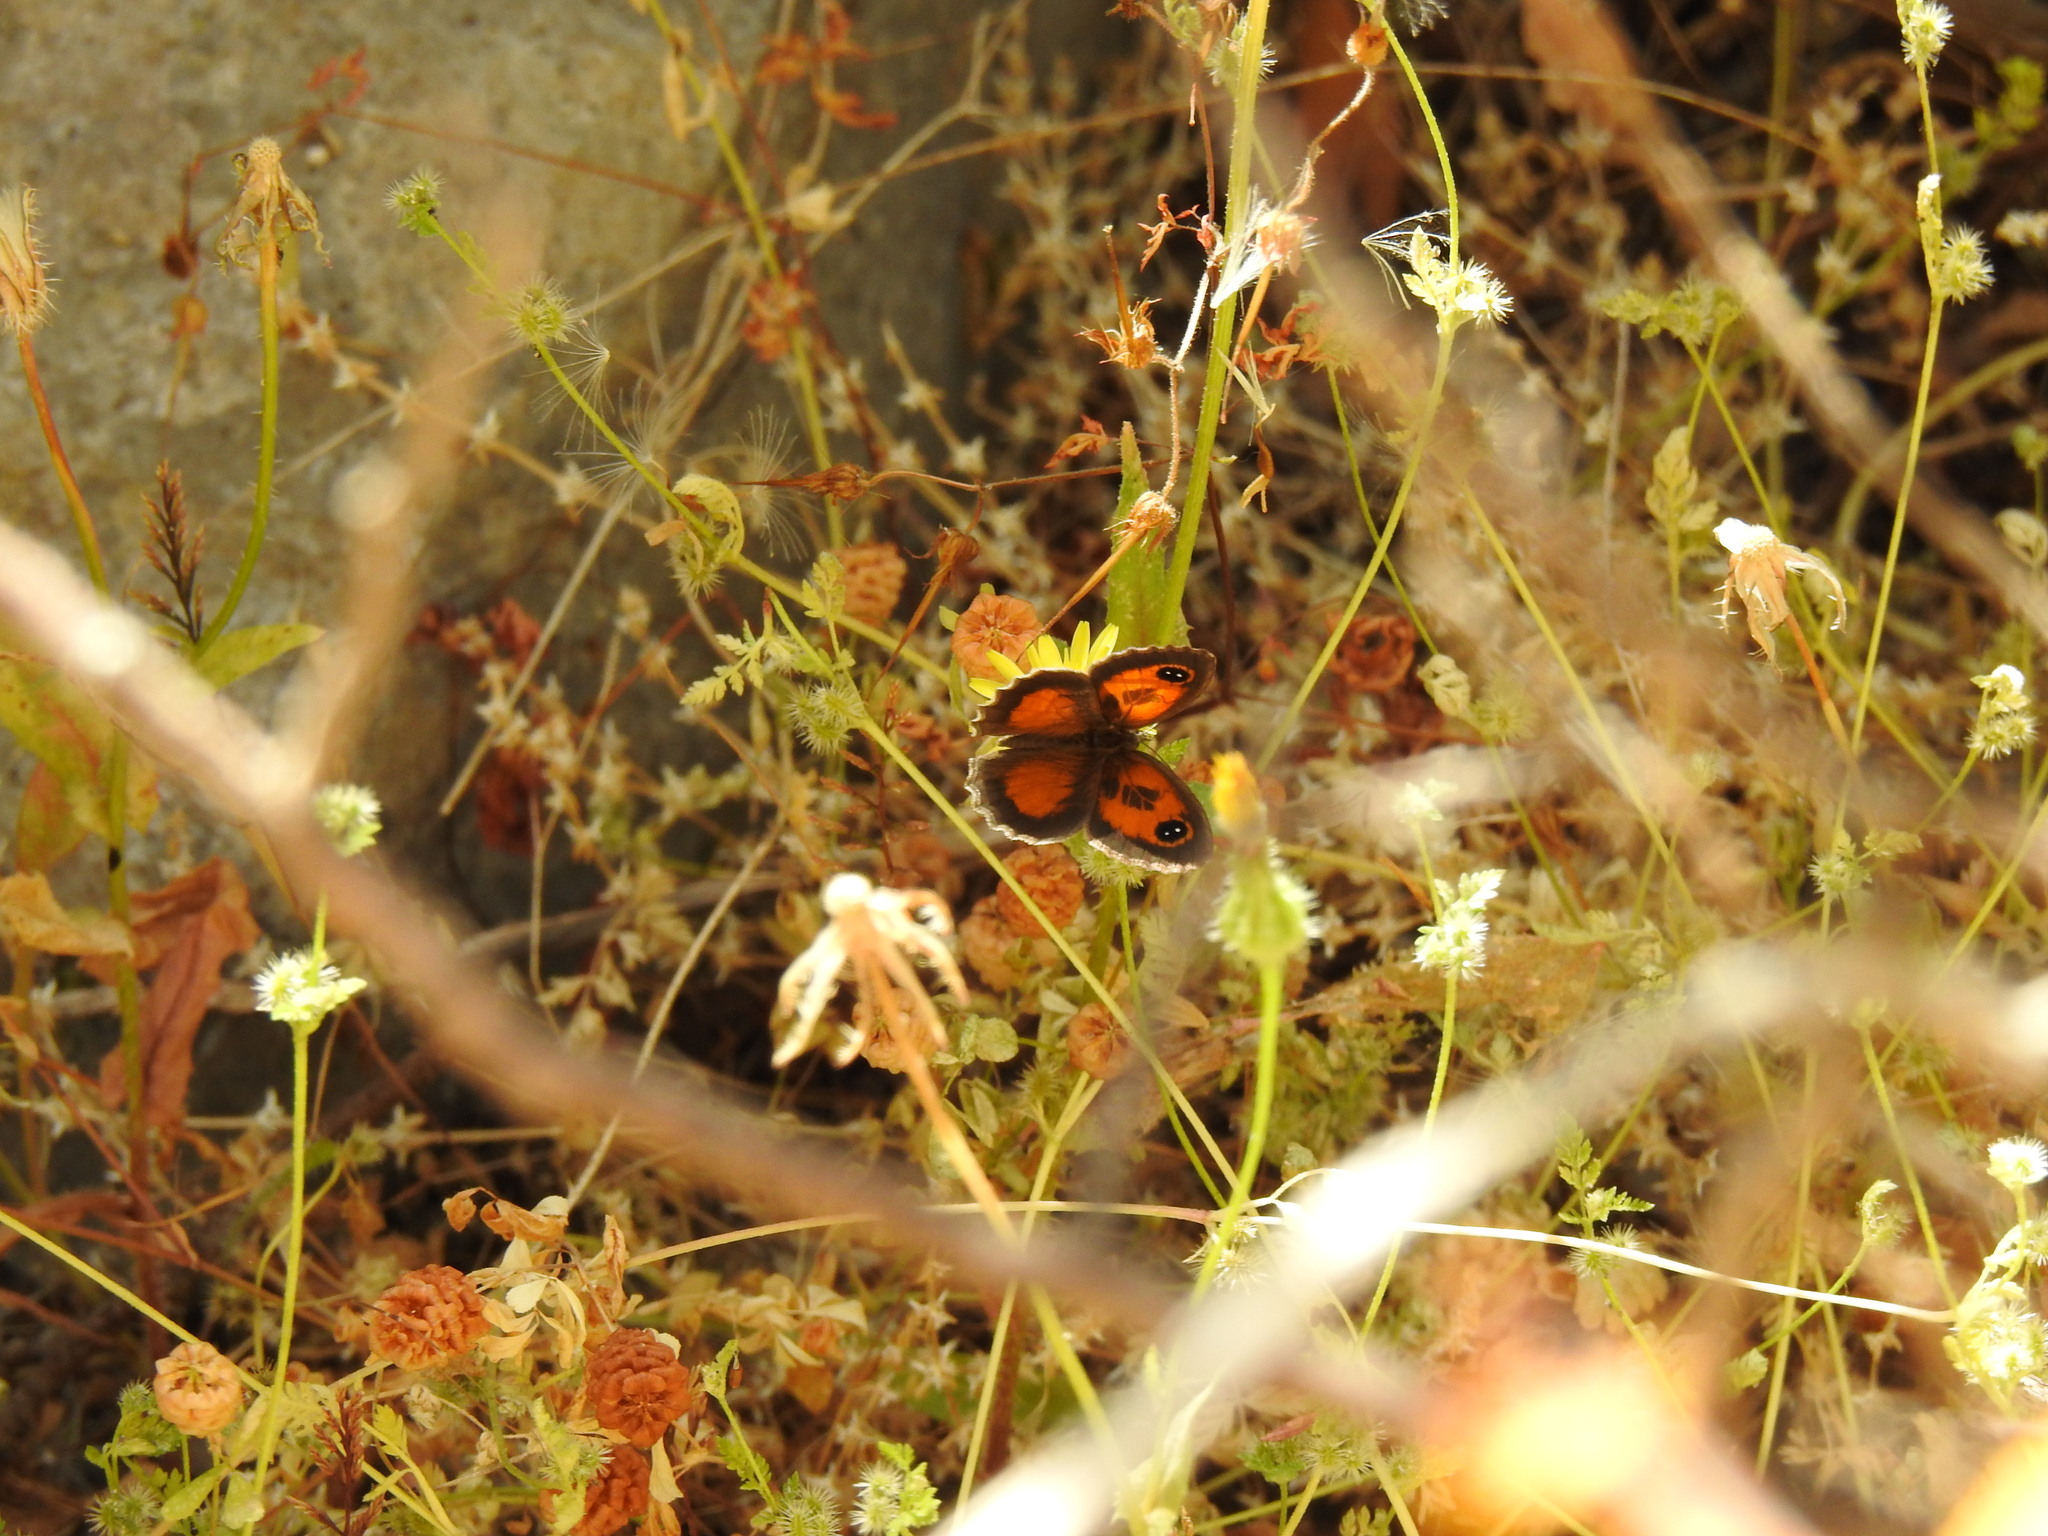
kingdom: Animalia
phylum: Arthropoda
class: Insecta
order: Lepidoptera
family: Nymphalidae
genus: Pyronia
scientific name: Pyronia cecilia
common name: Southern gatekeeper
